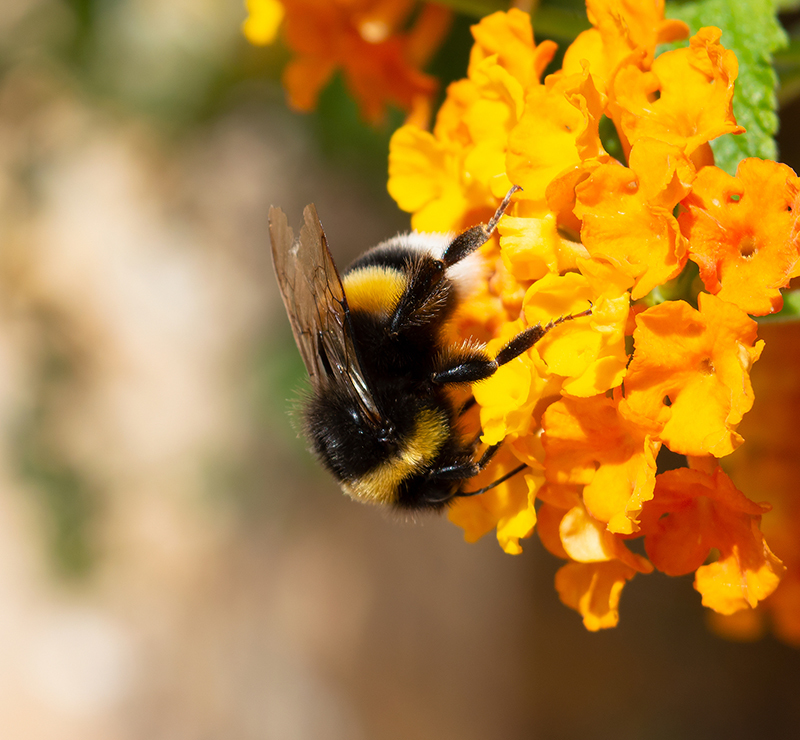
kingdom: Animalia
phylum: Arthropoda
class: Insecta
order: Hymenoptera
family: Apidae
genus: Bombus
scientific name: Bombus terrestris
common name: Buff-tailed bumblebee
